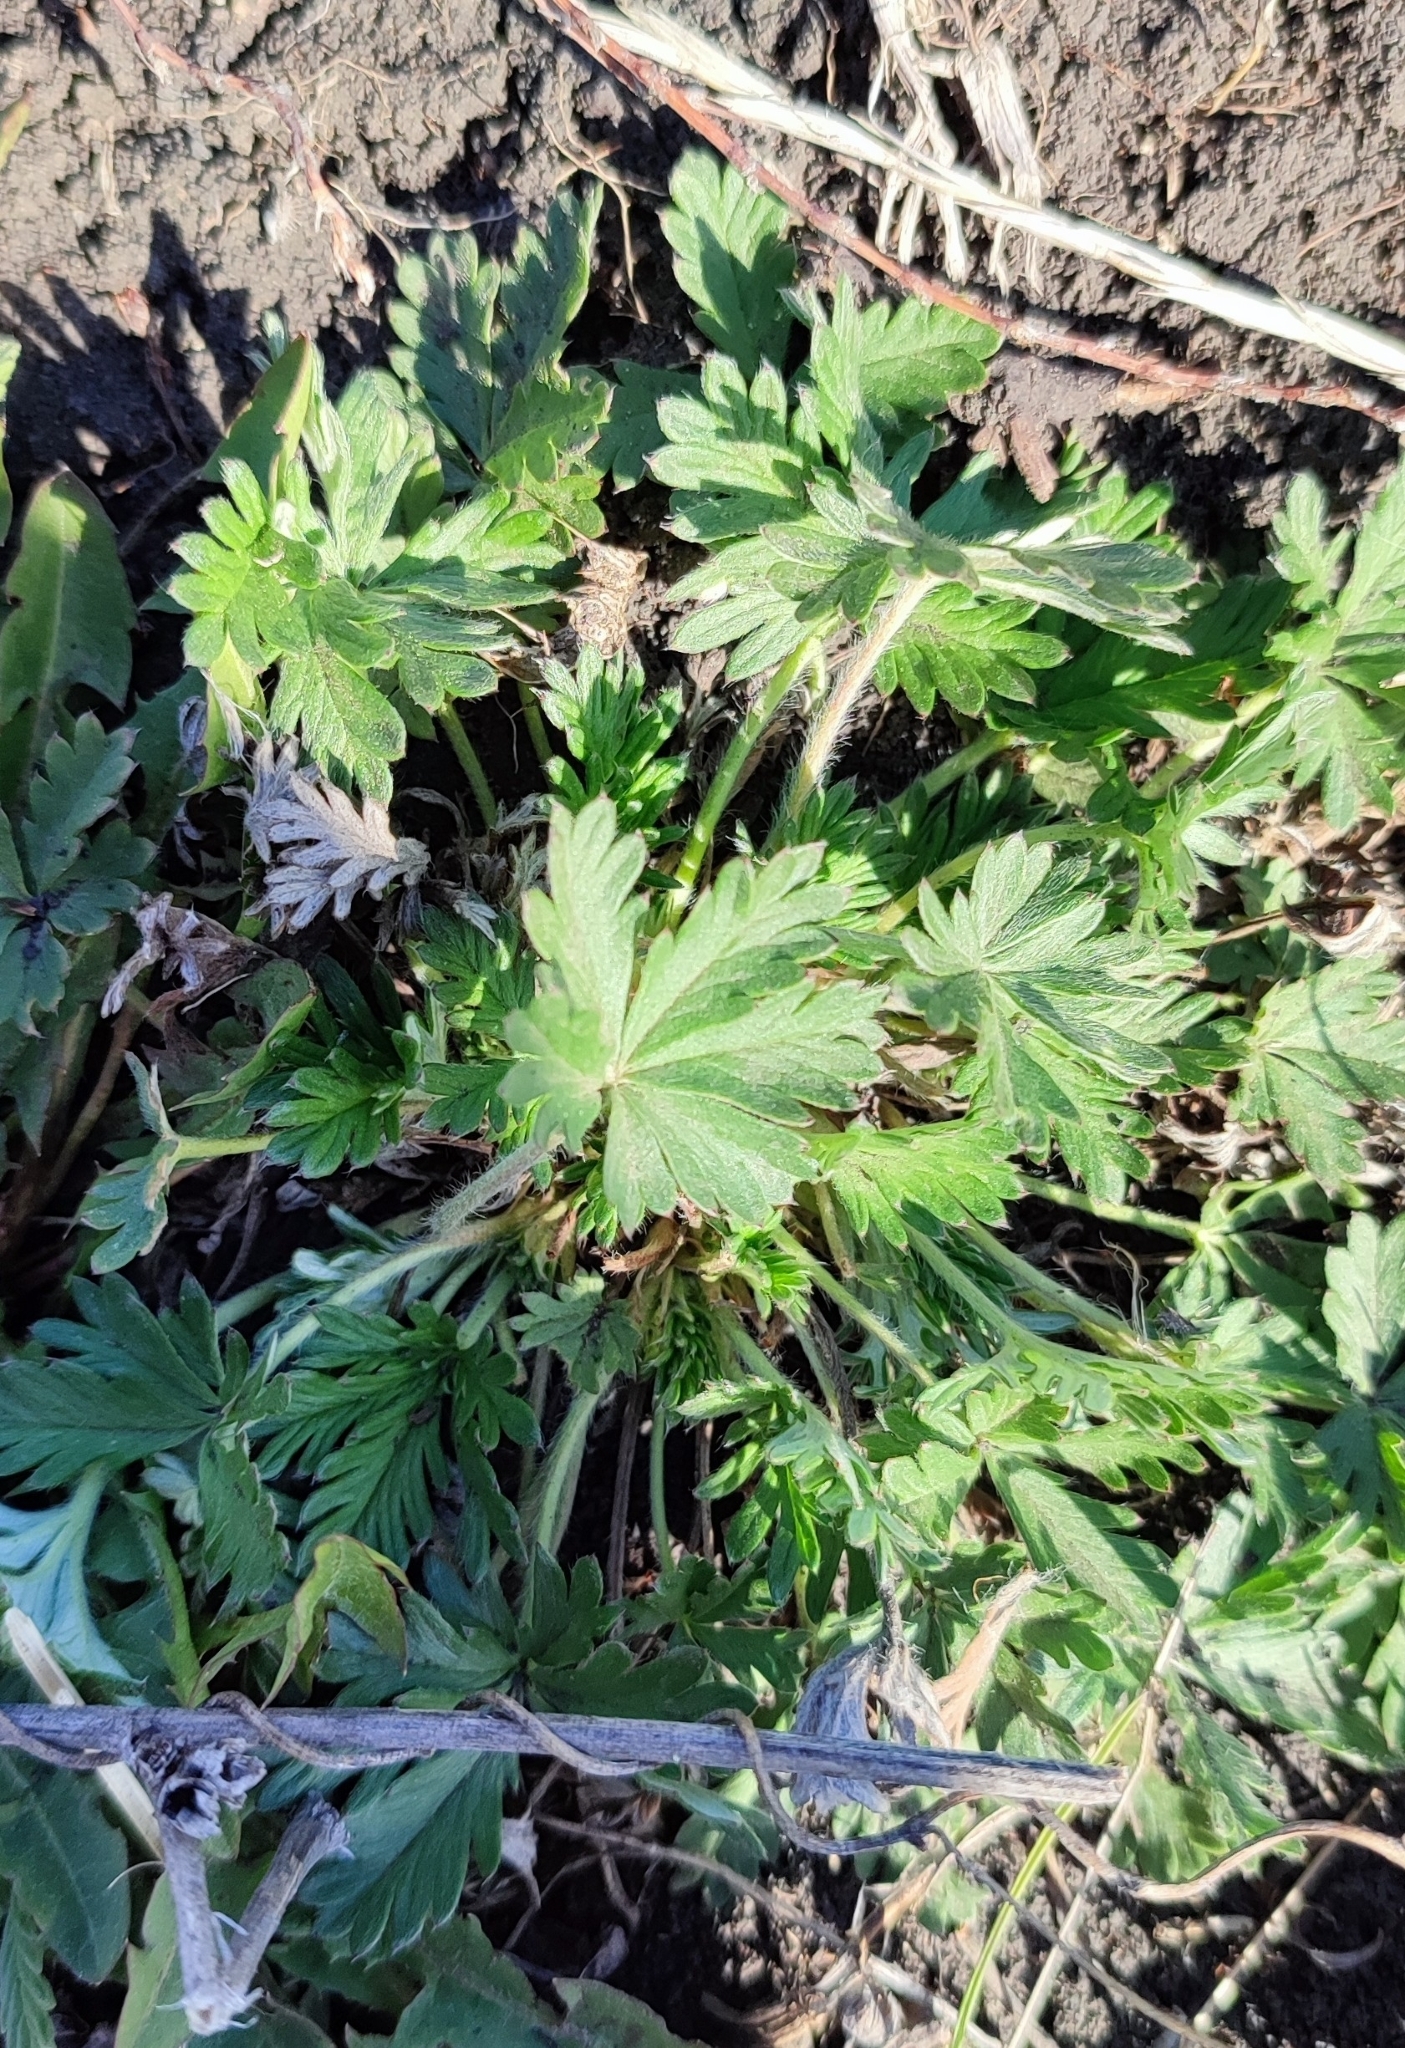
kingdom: Plantae
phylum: Tracheophyta
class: Magnoliopsida
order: Rosales
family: Rosaceae
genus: Potentilla
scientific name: Potentilla argentea
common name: Hoary cinquefoil
